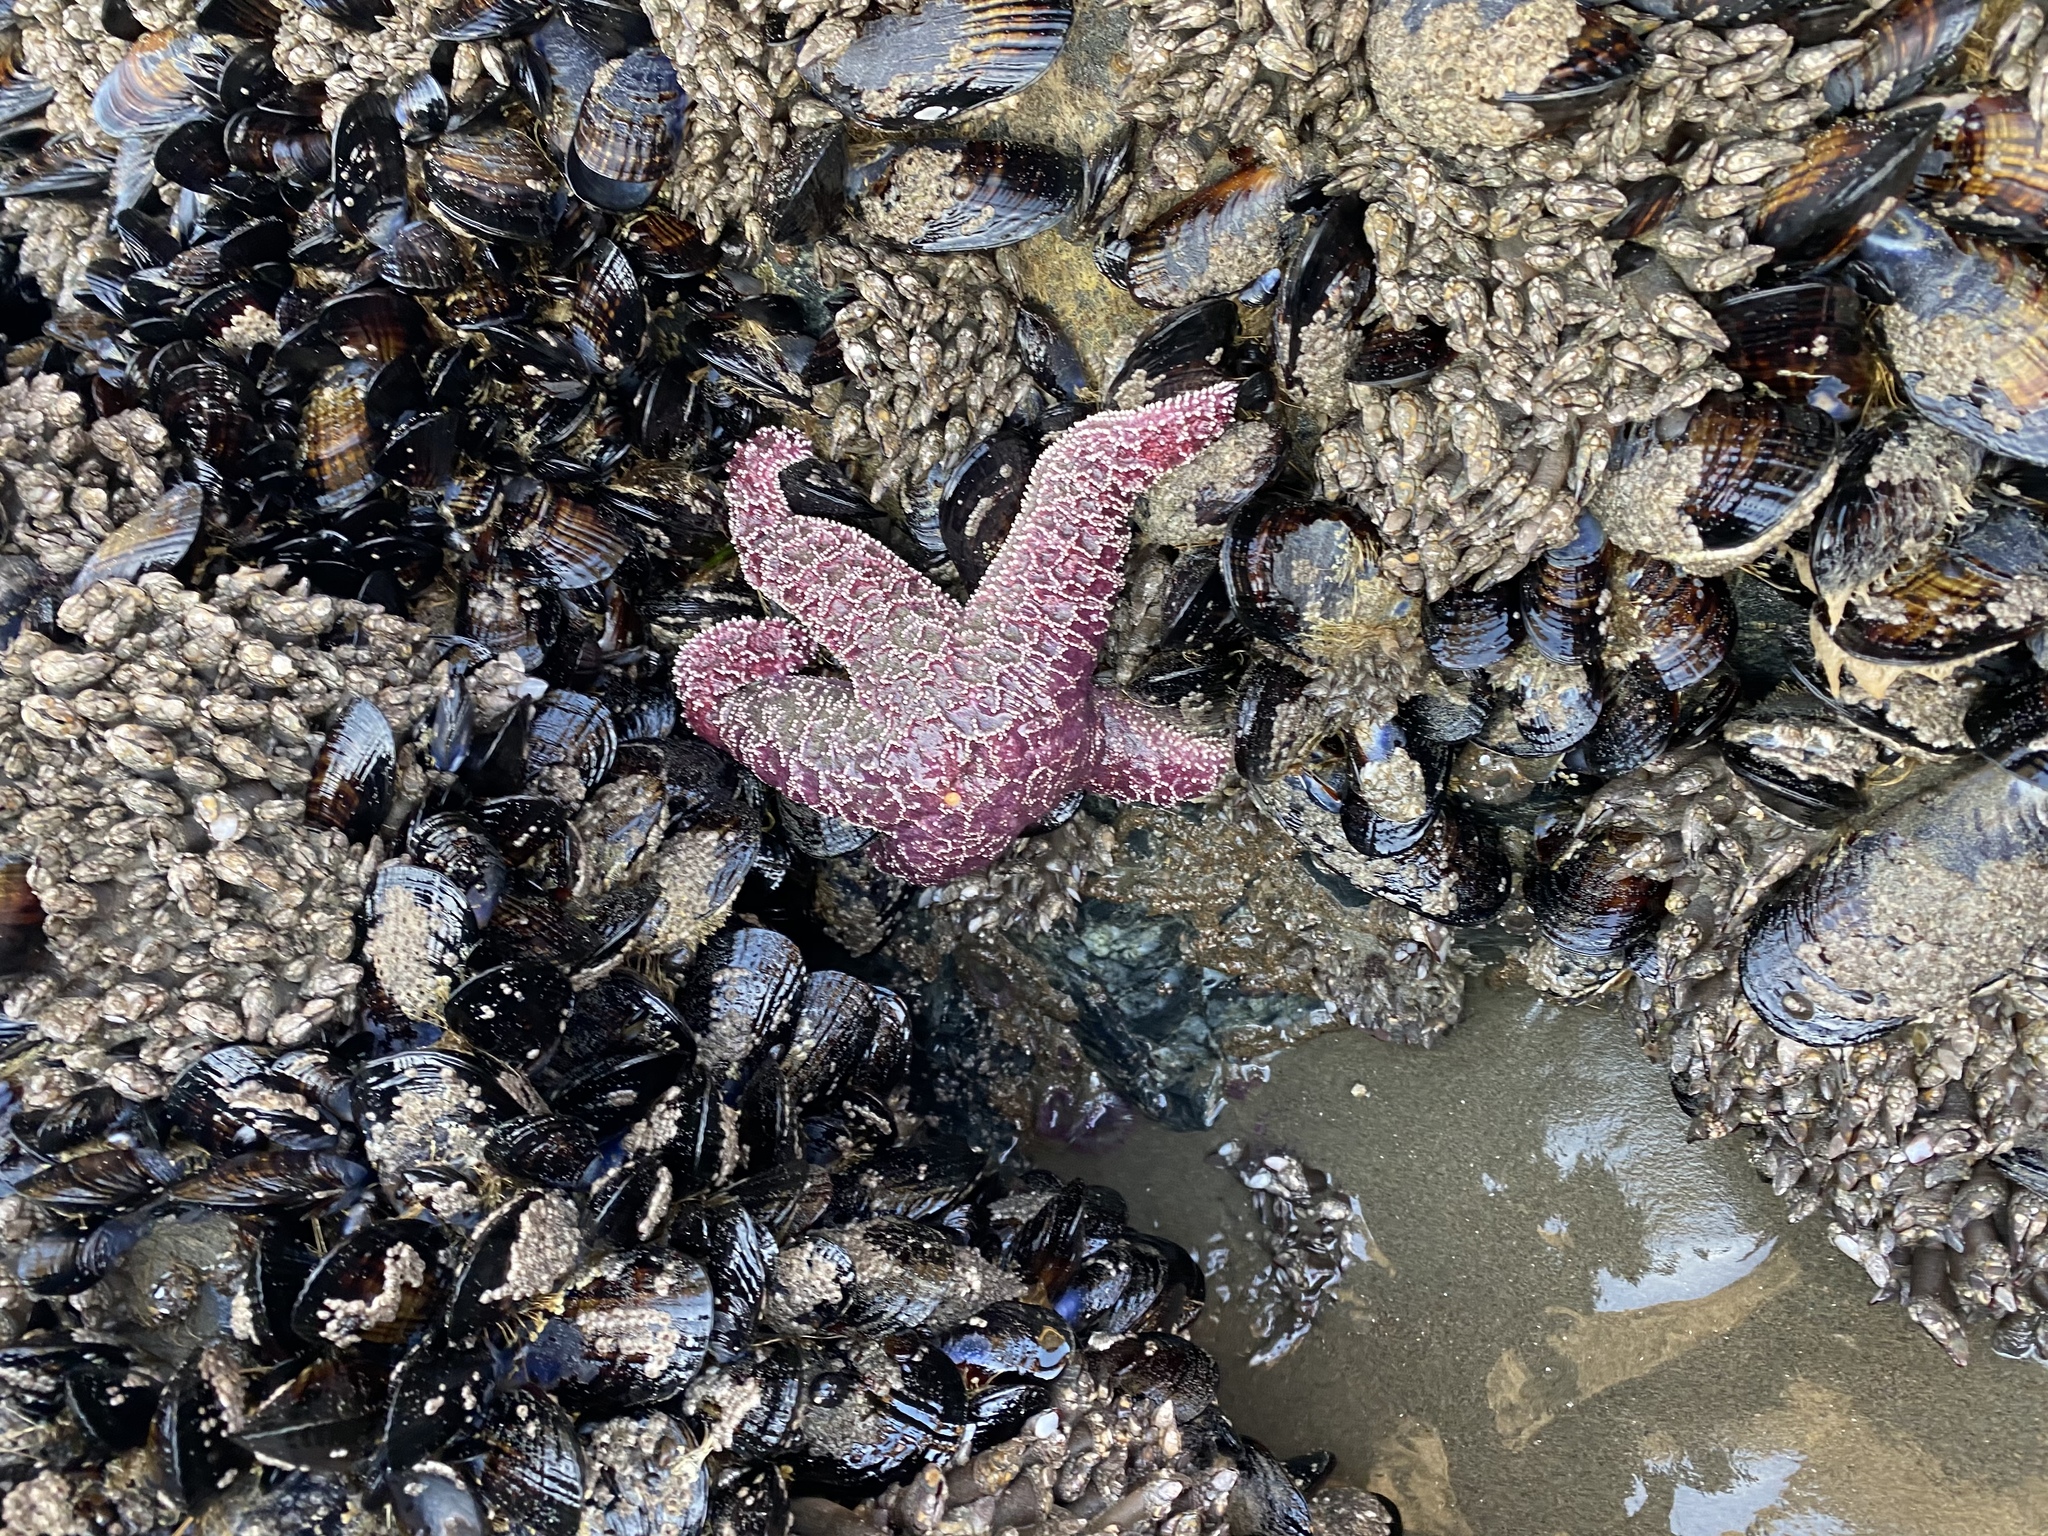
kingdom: Animalia
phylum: Echinodermata
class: Asteroidea
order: Forcipulatida
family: Asteriidae
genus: Pisaster
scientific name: Pisaster ochraceus
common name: Ochre stars
